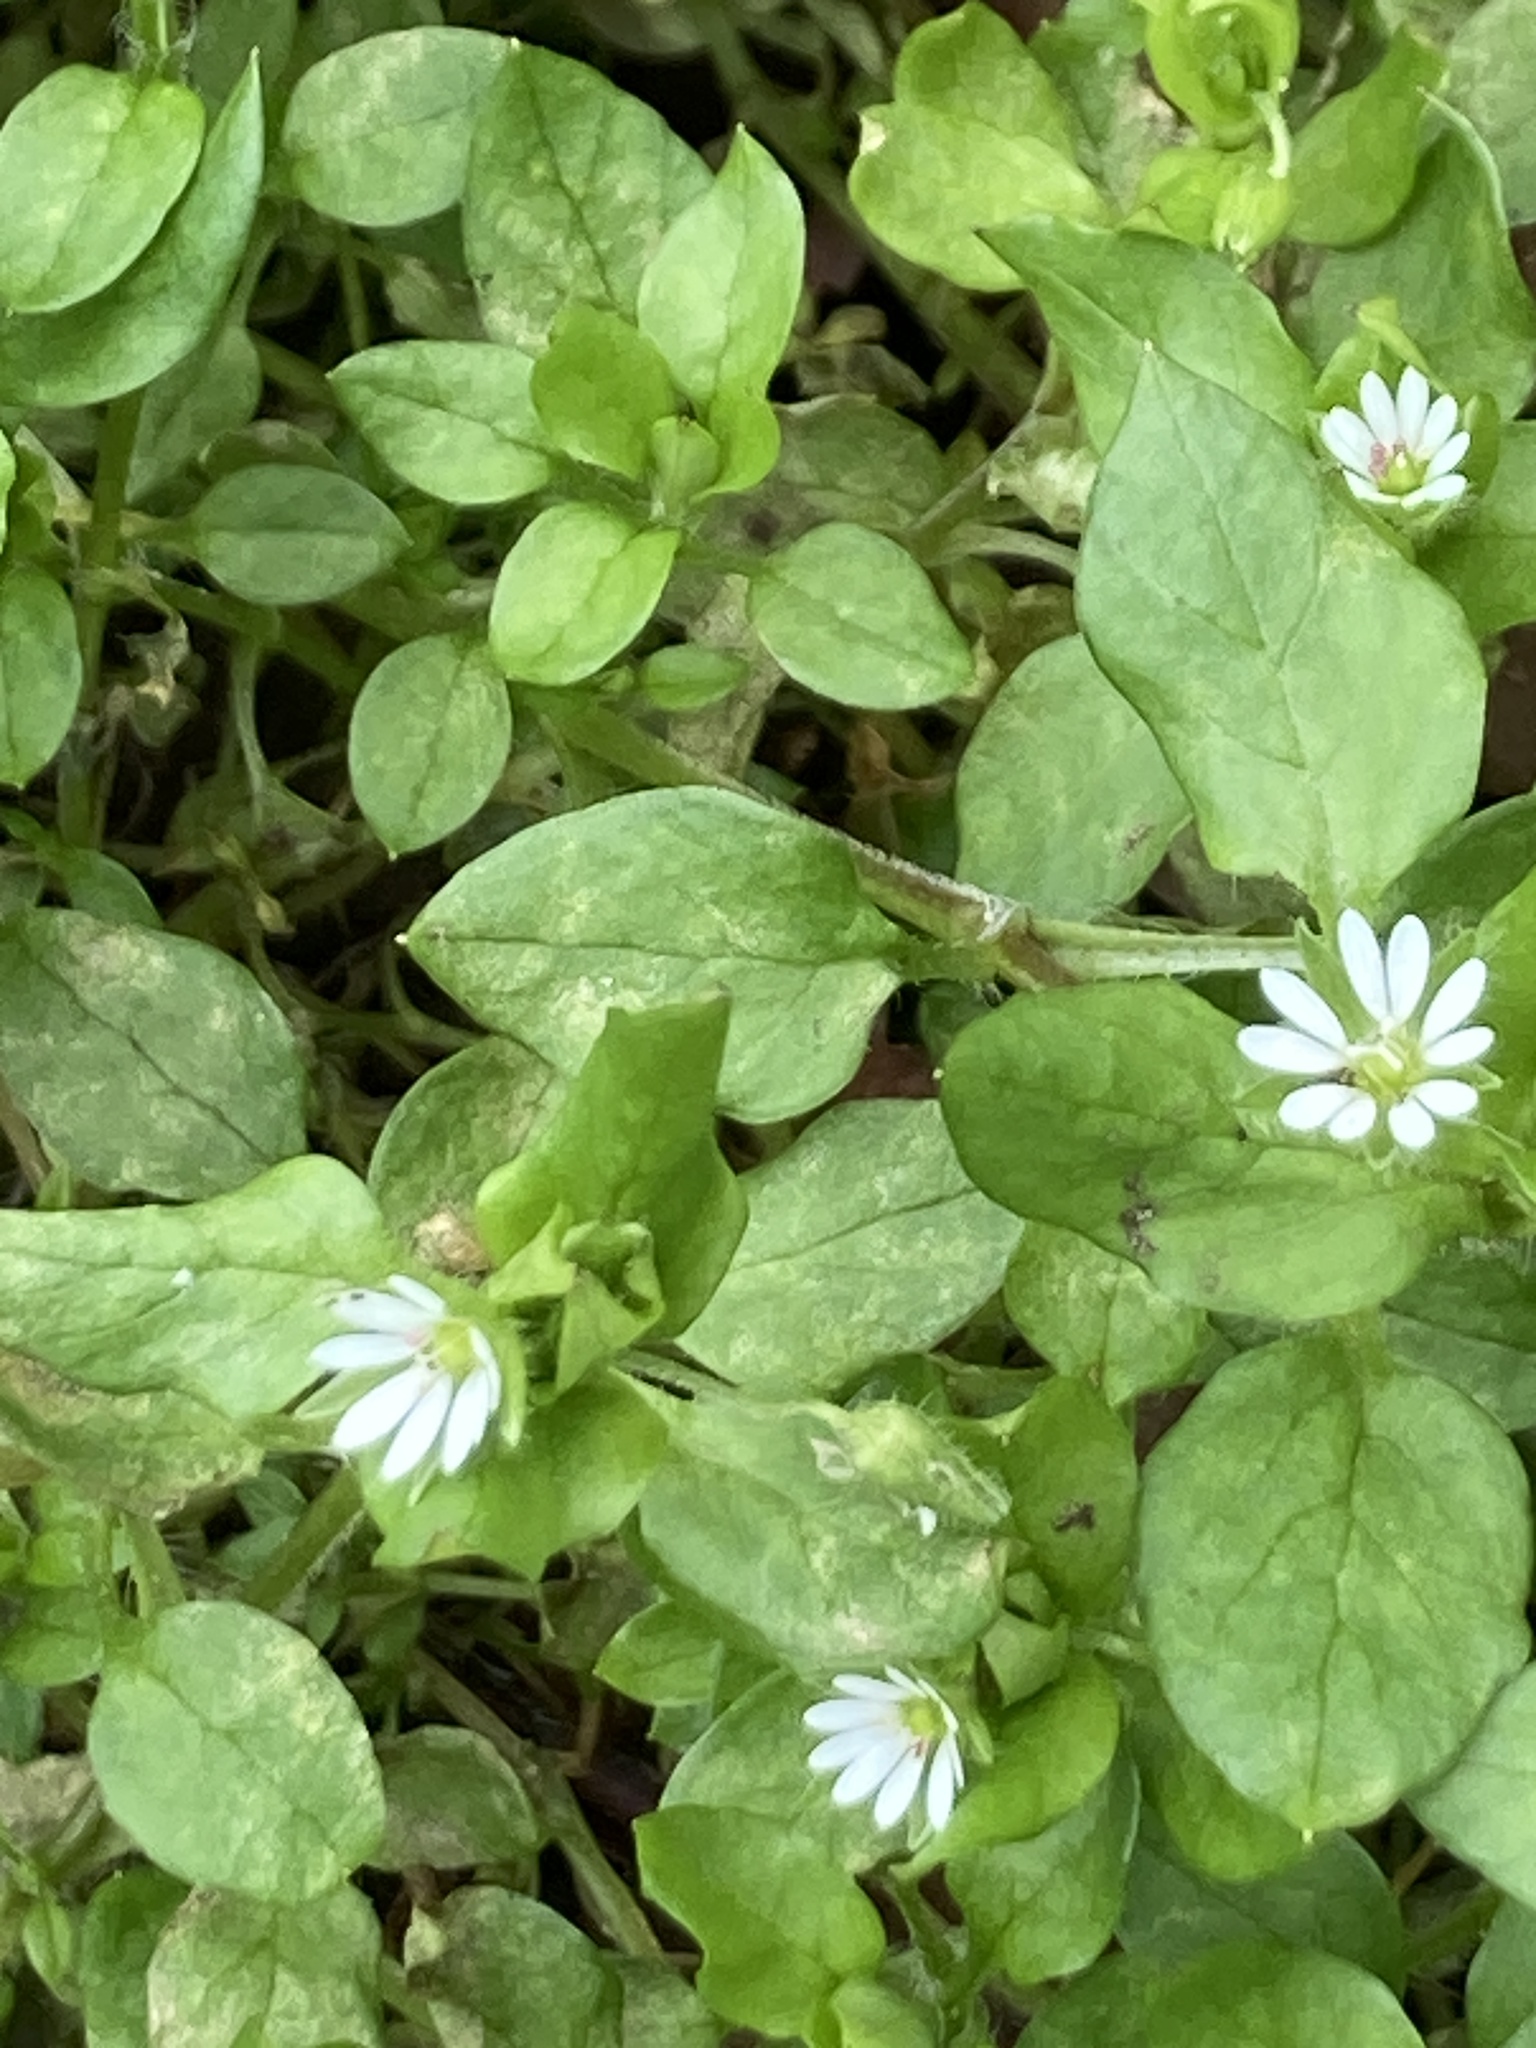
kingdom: Plantae
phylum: Tracheophyta
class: Magnoliopsida
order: Caryophyllales
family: Caryophyllaceae
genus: Stellaria
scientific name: Stellaria media
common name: Common chickweed
